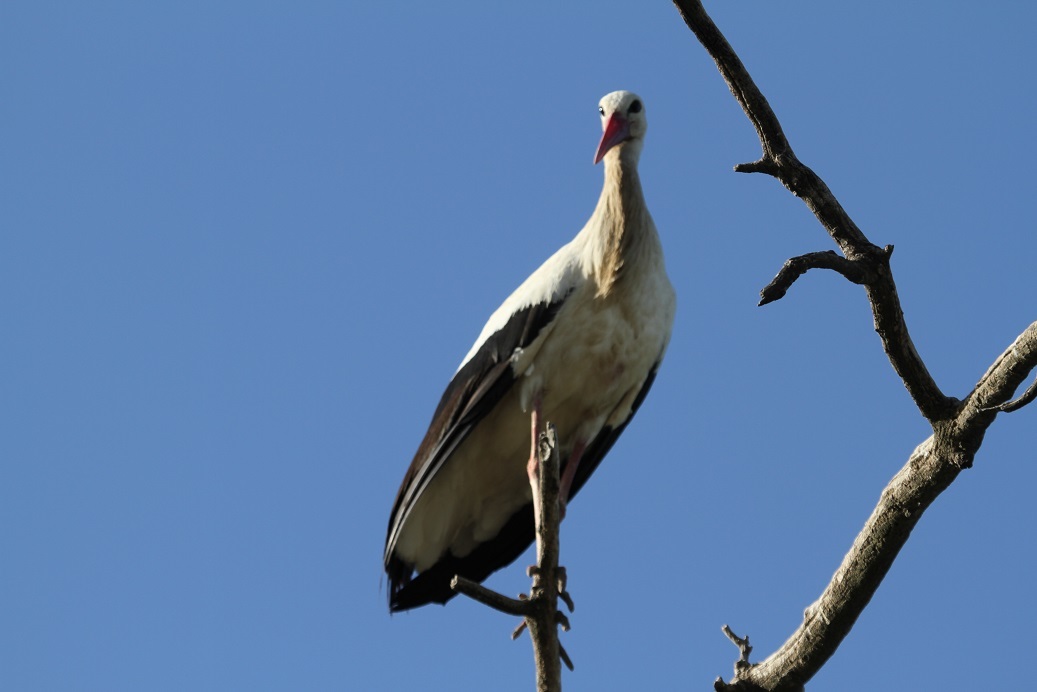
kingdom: Animalia
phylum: Chordata
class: Aves
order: Ciconiiformes
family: Ciconiidae
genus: Ciconia
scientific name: Ciconia ciconia
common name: White stork
